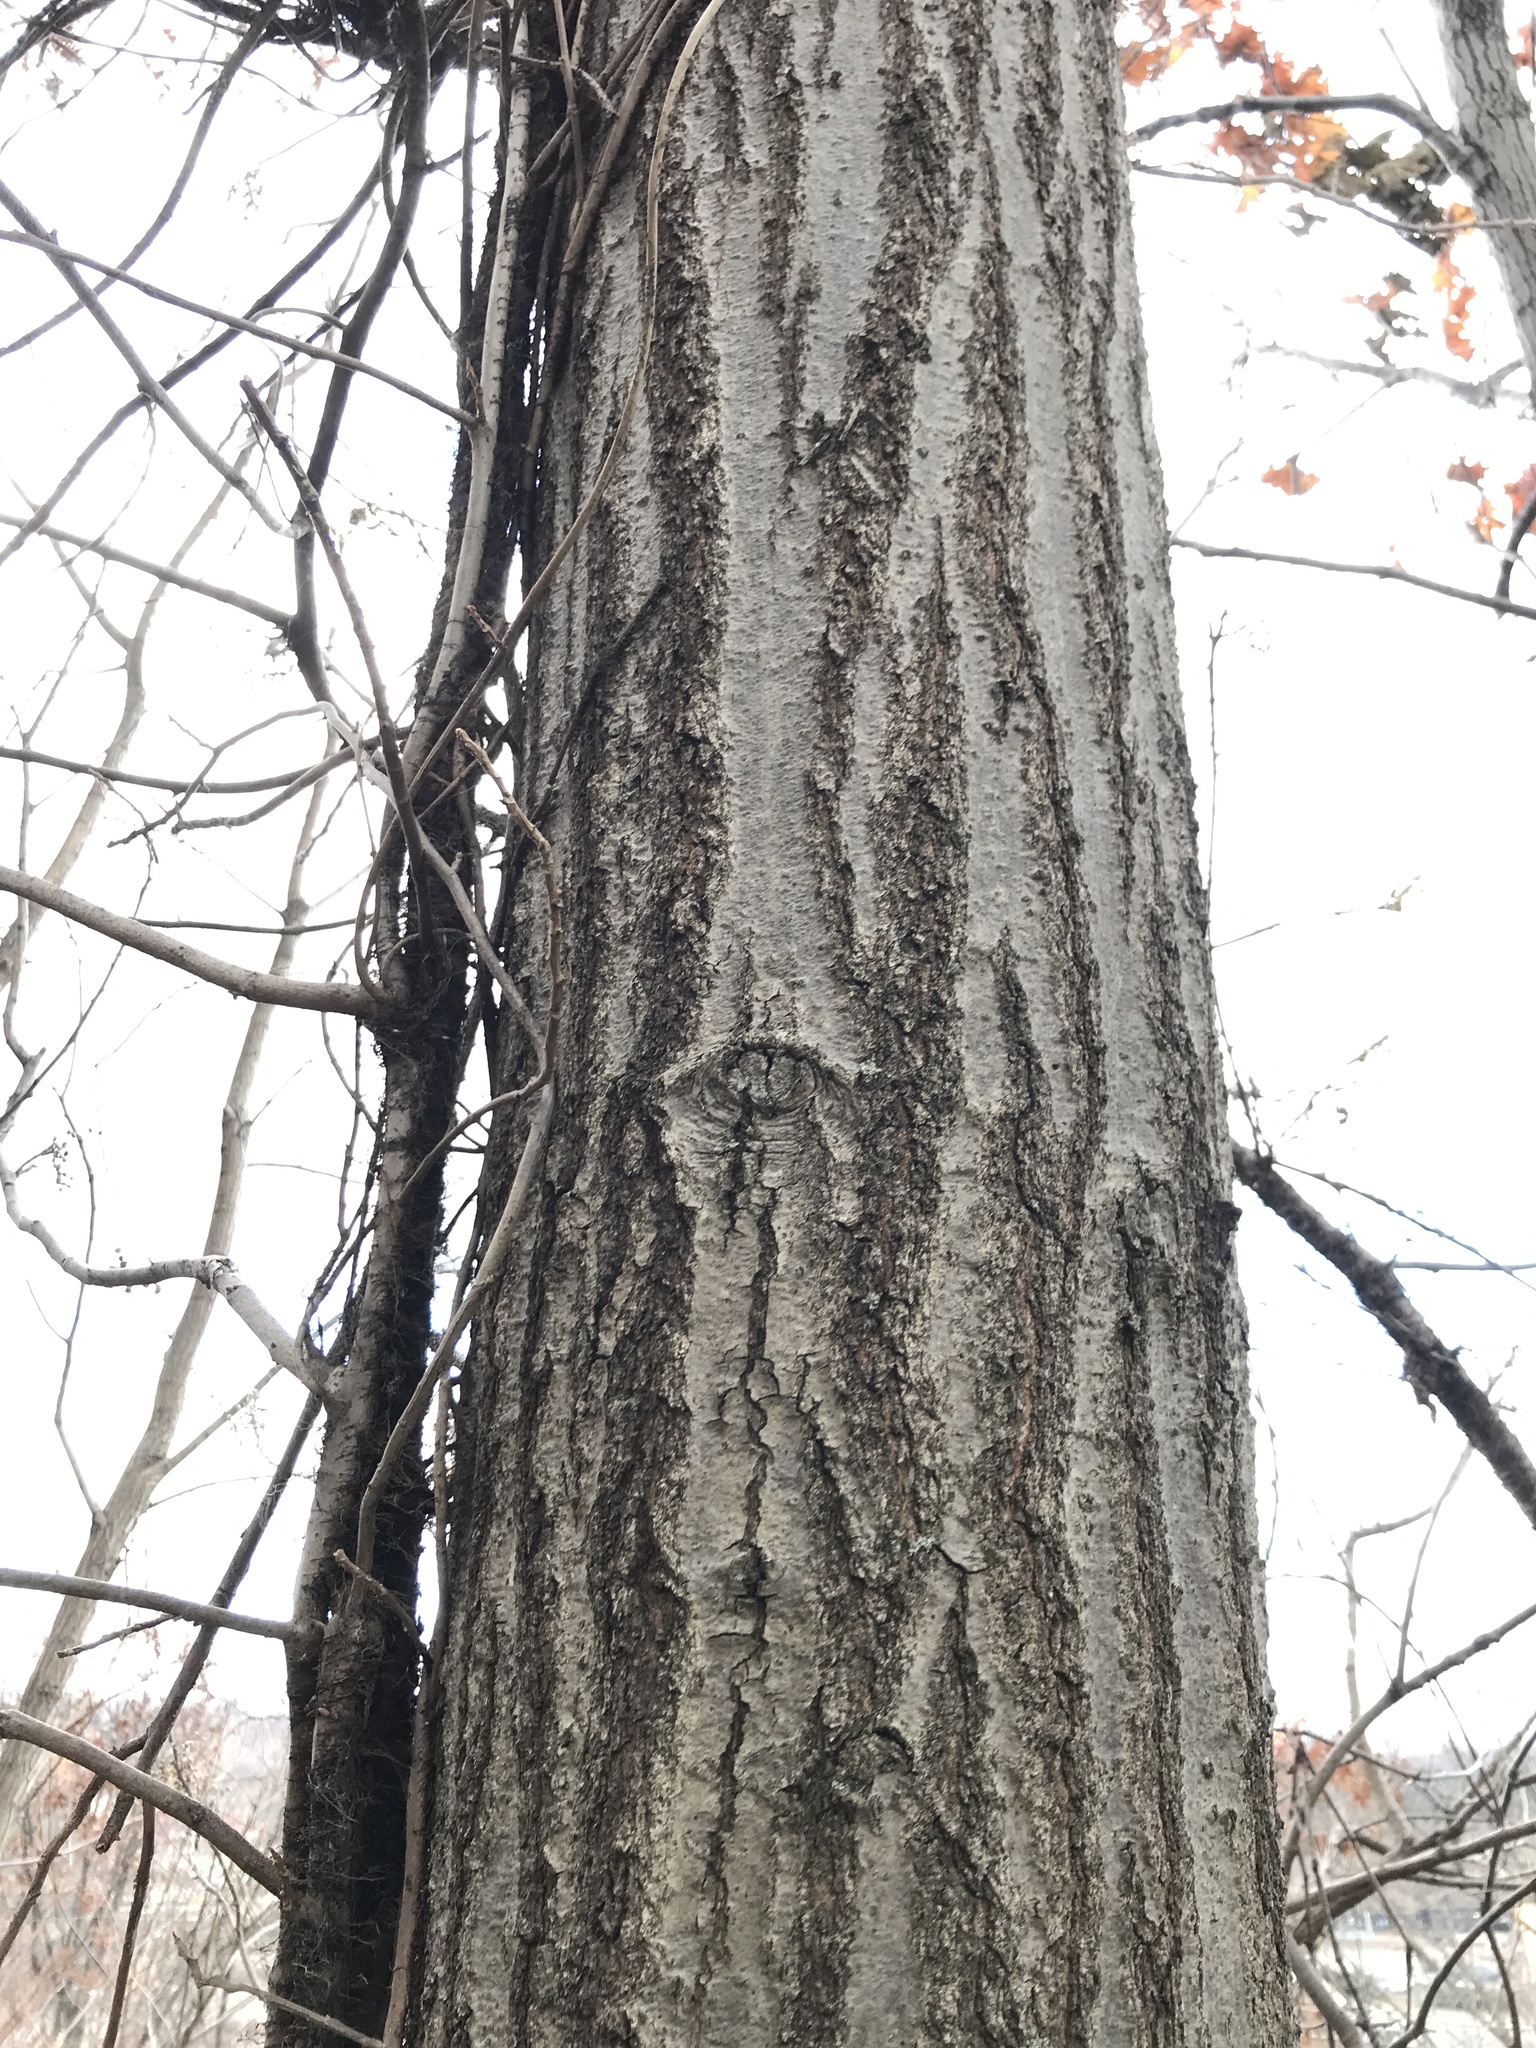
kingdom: Plantae
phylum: Tracheophyta
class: Magnoliopsida
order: Fagales
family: Fagaceae
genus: Quercus
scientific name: Quercus rubra
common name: Red oak
